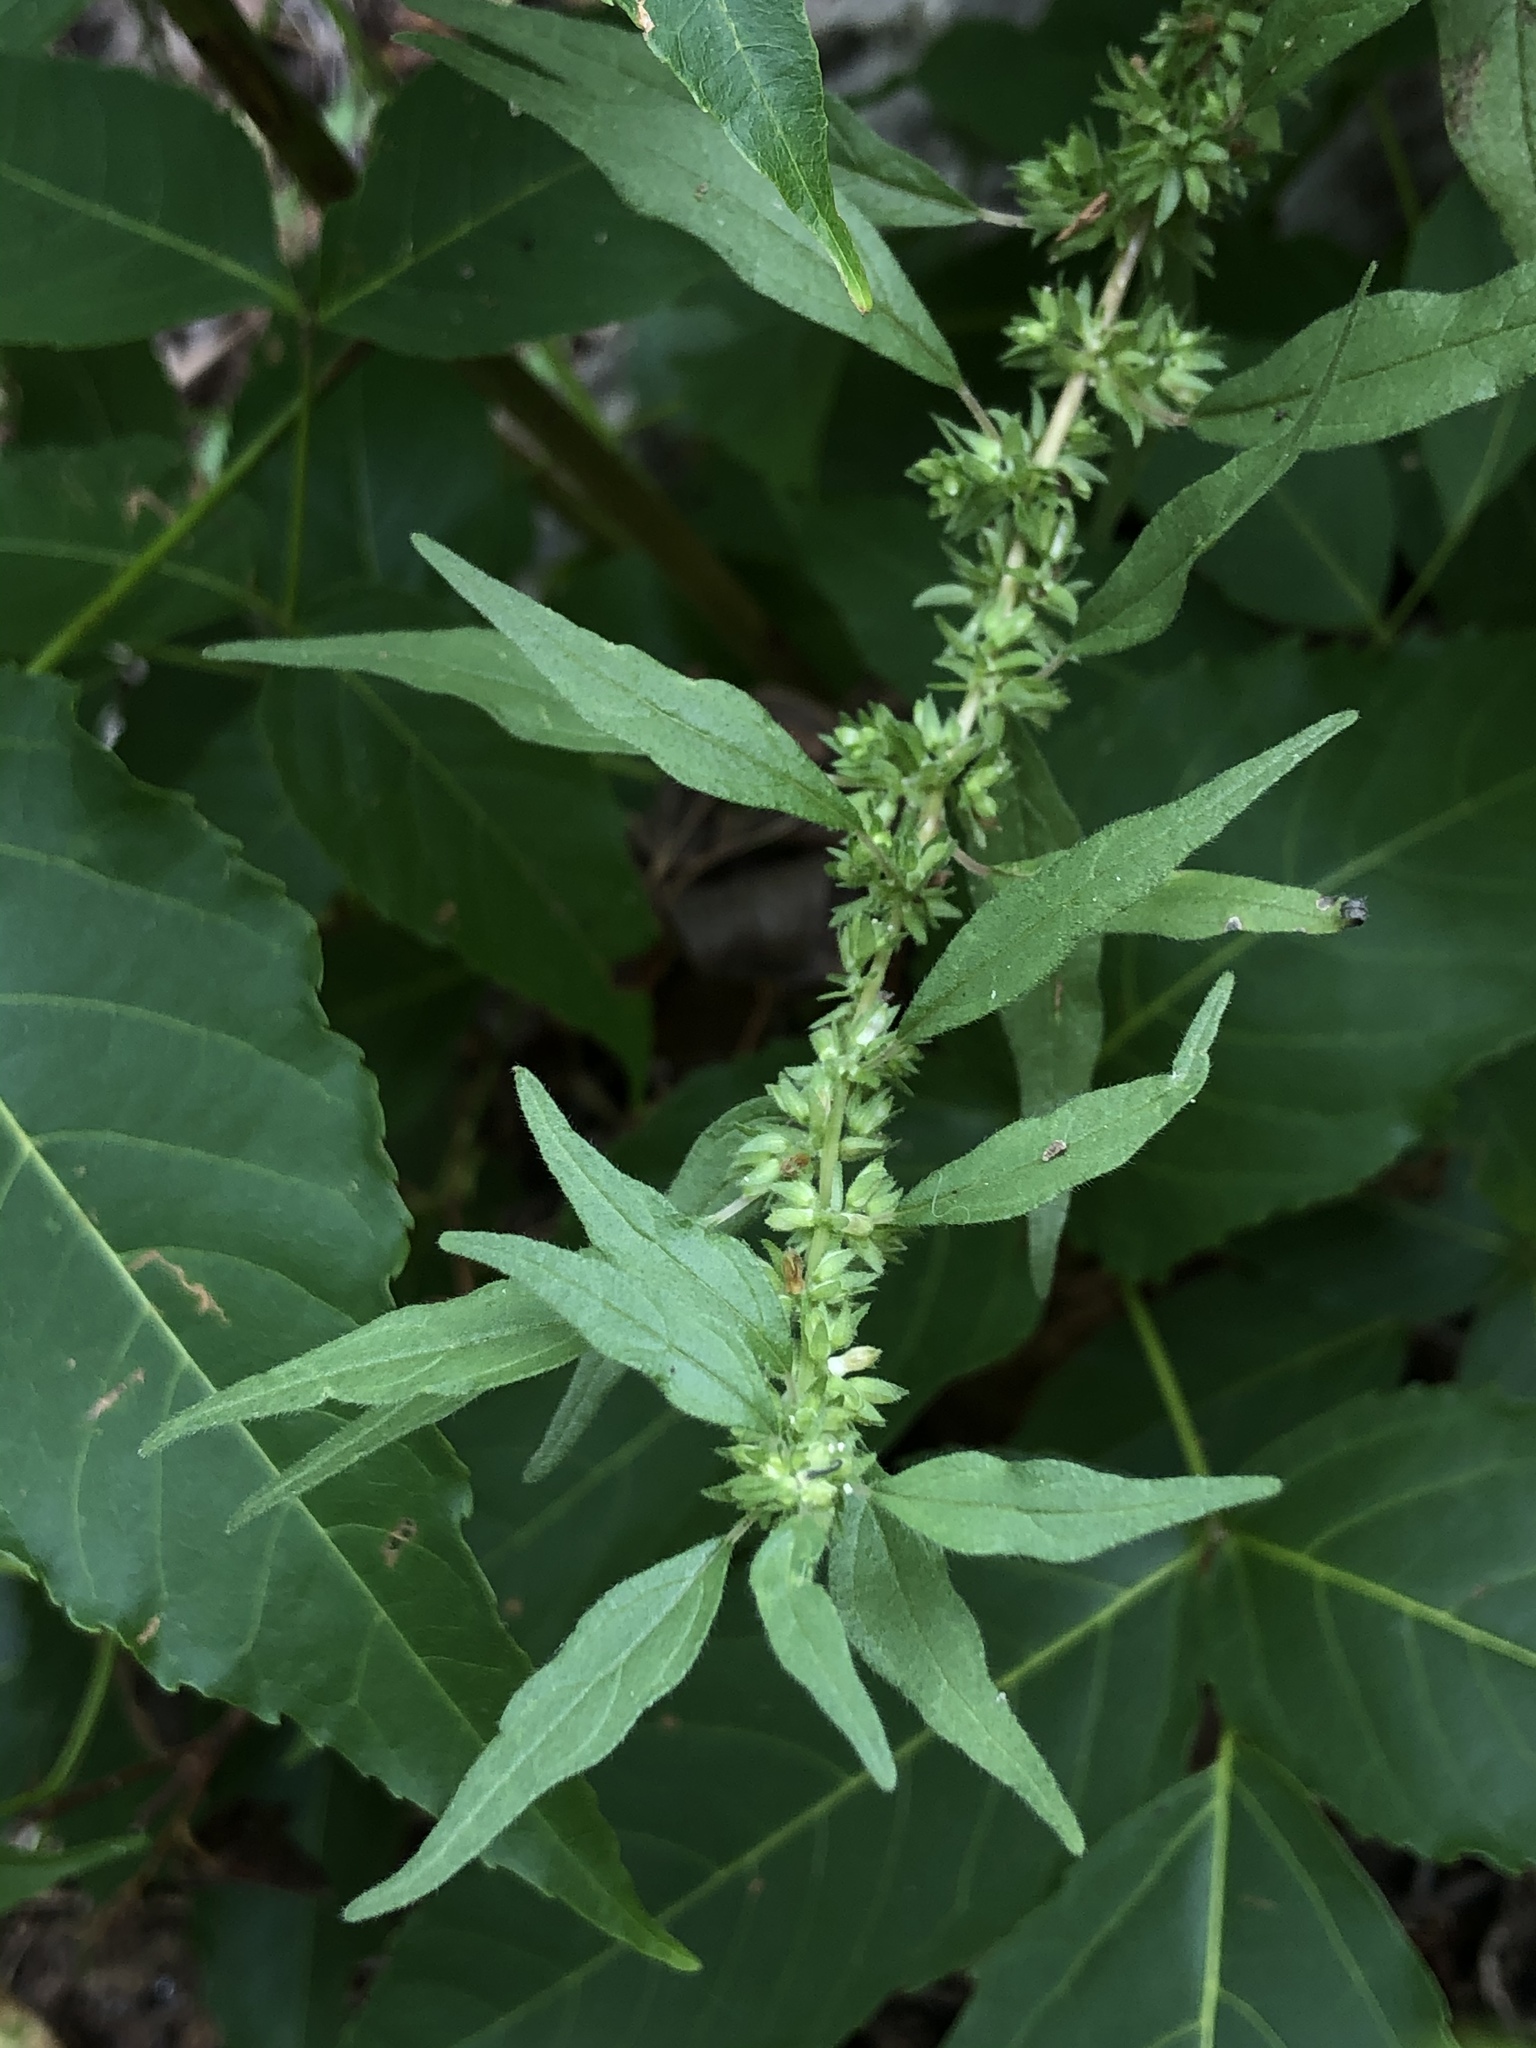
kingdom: Plantae
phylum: Tracheophyta
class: Magnoliopsida
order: Rosales
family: Urticaceae
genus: Parietaria
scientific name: Parietaria pensylvanica
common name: Pennsylvania pellitory
